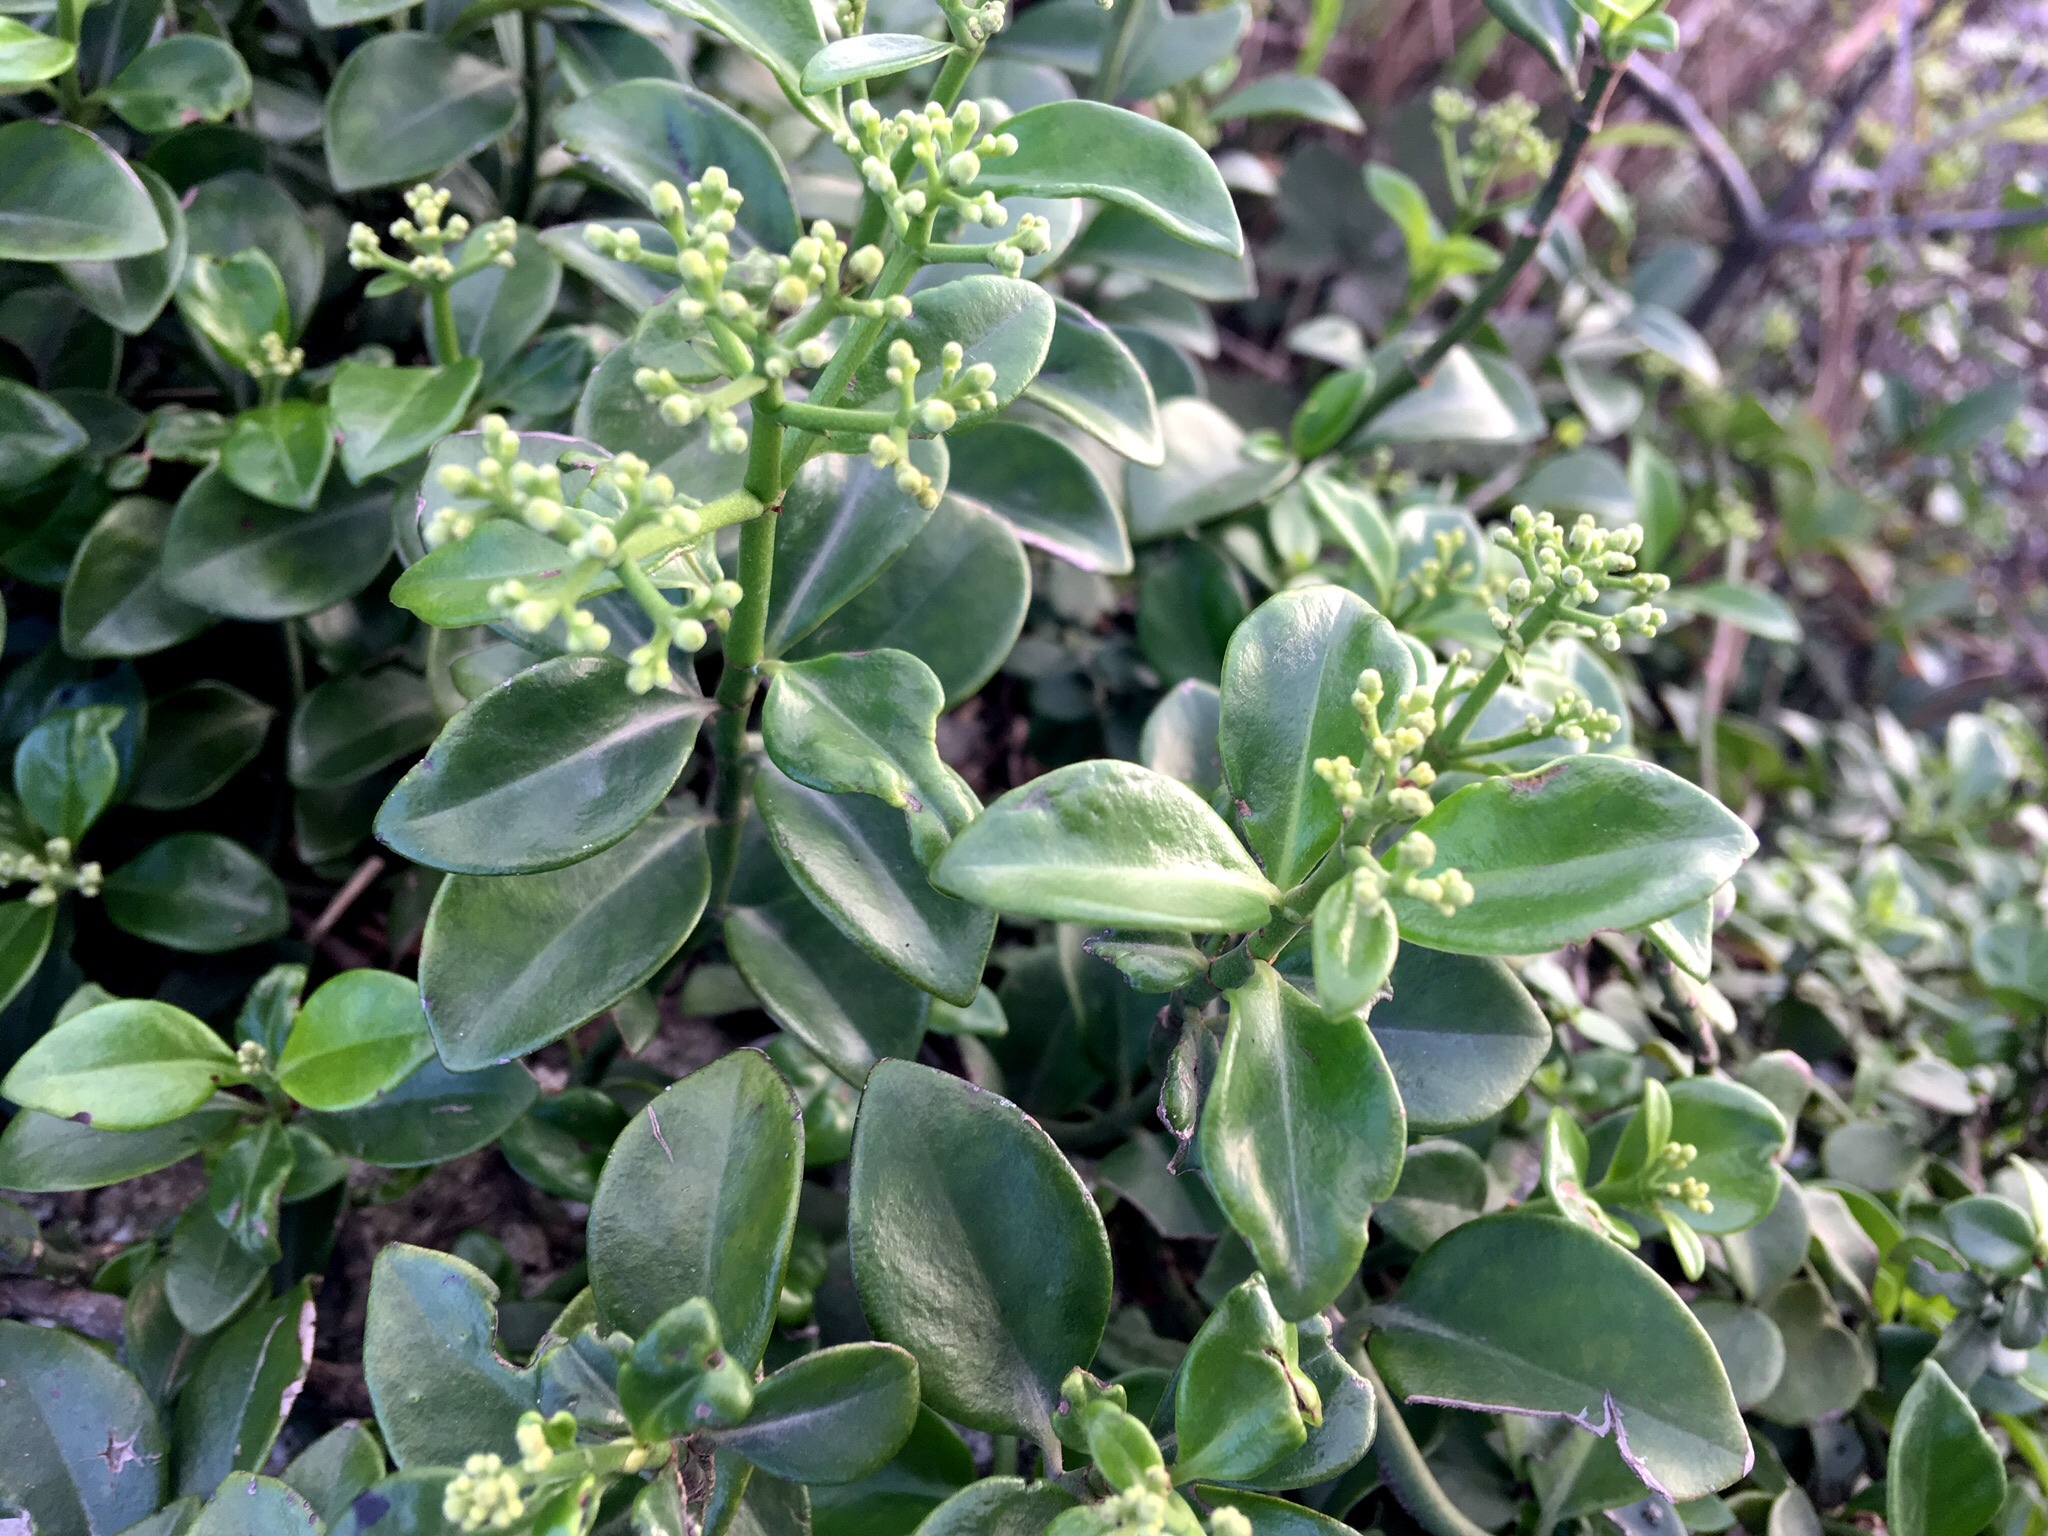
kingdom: Plantae
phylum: Tracheophyta
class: Magnoliopsida
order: Gentianales
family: Rubiaceae
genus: Psychotria
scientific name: Psychotria serpens
